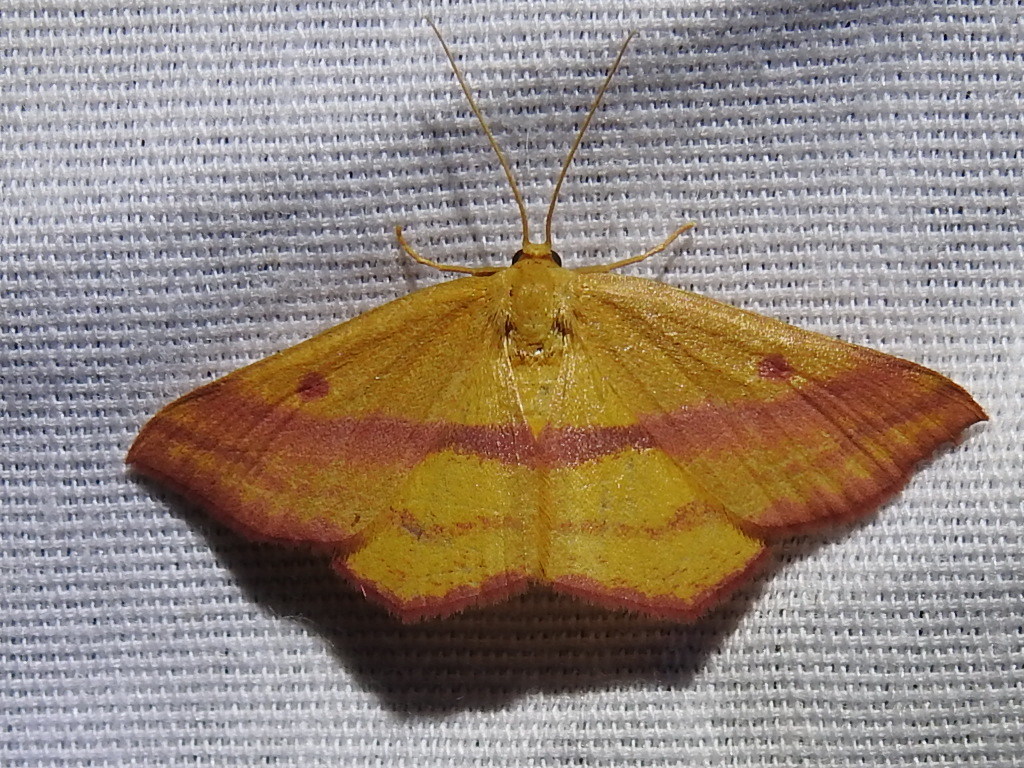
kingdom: Animalia
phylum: Arthropoda
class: Insecta
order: Lepidoptera
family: Geometridae
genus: Haematopis
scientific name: Haematopis grataria
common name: Chickweed geometer
